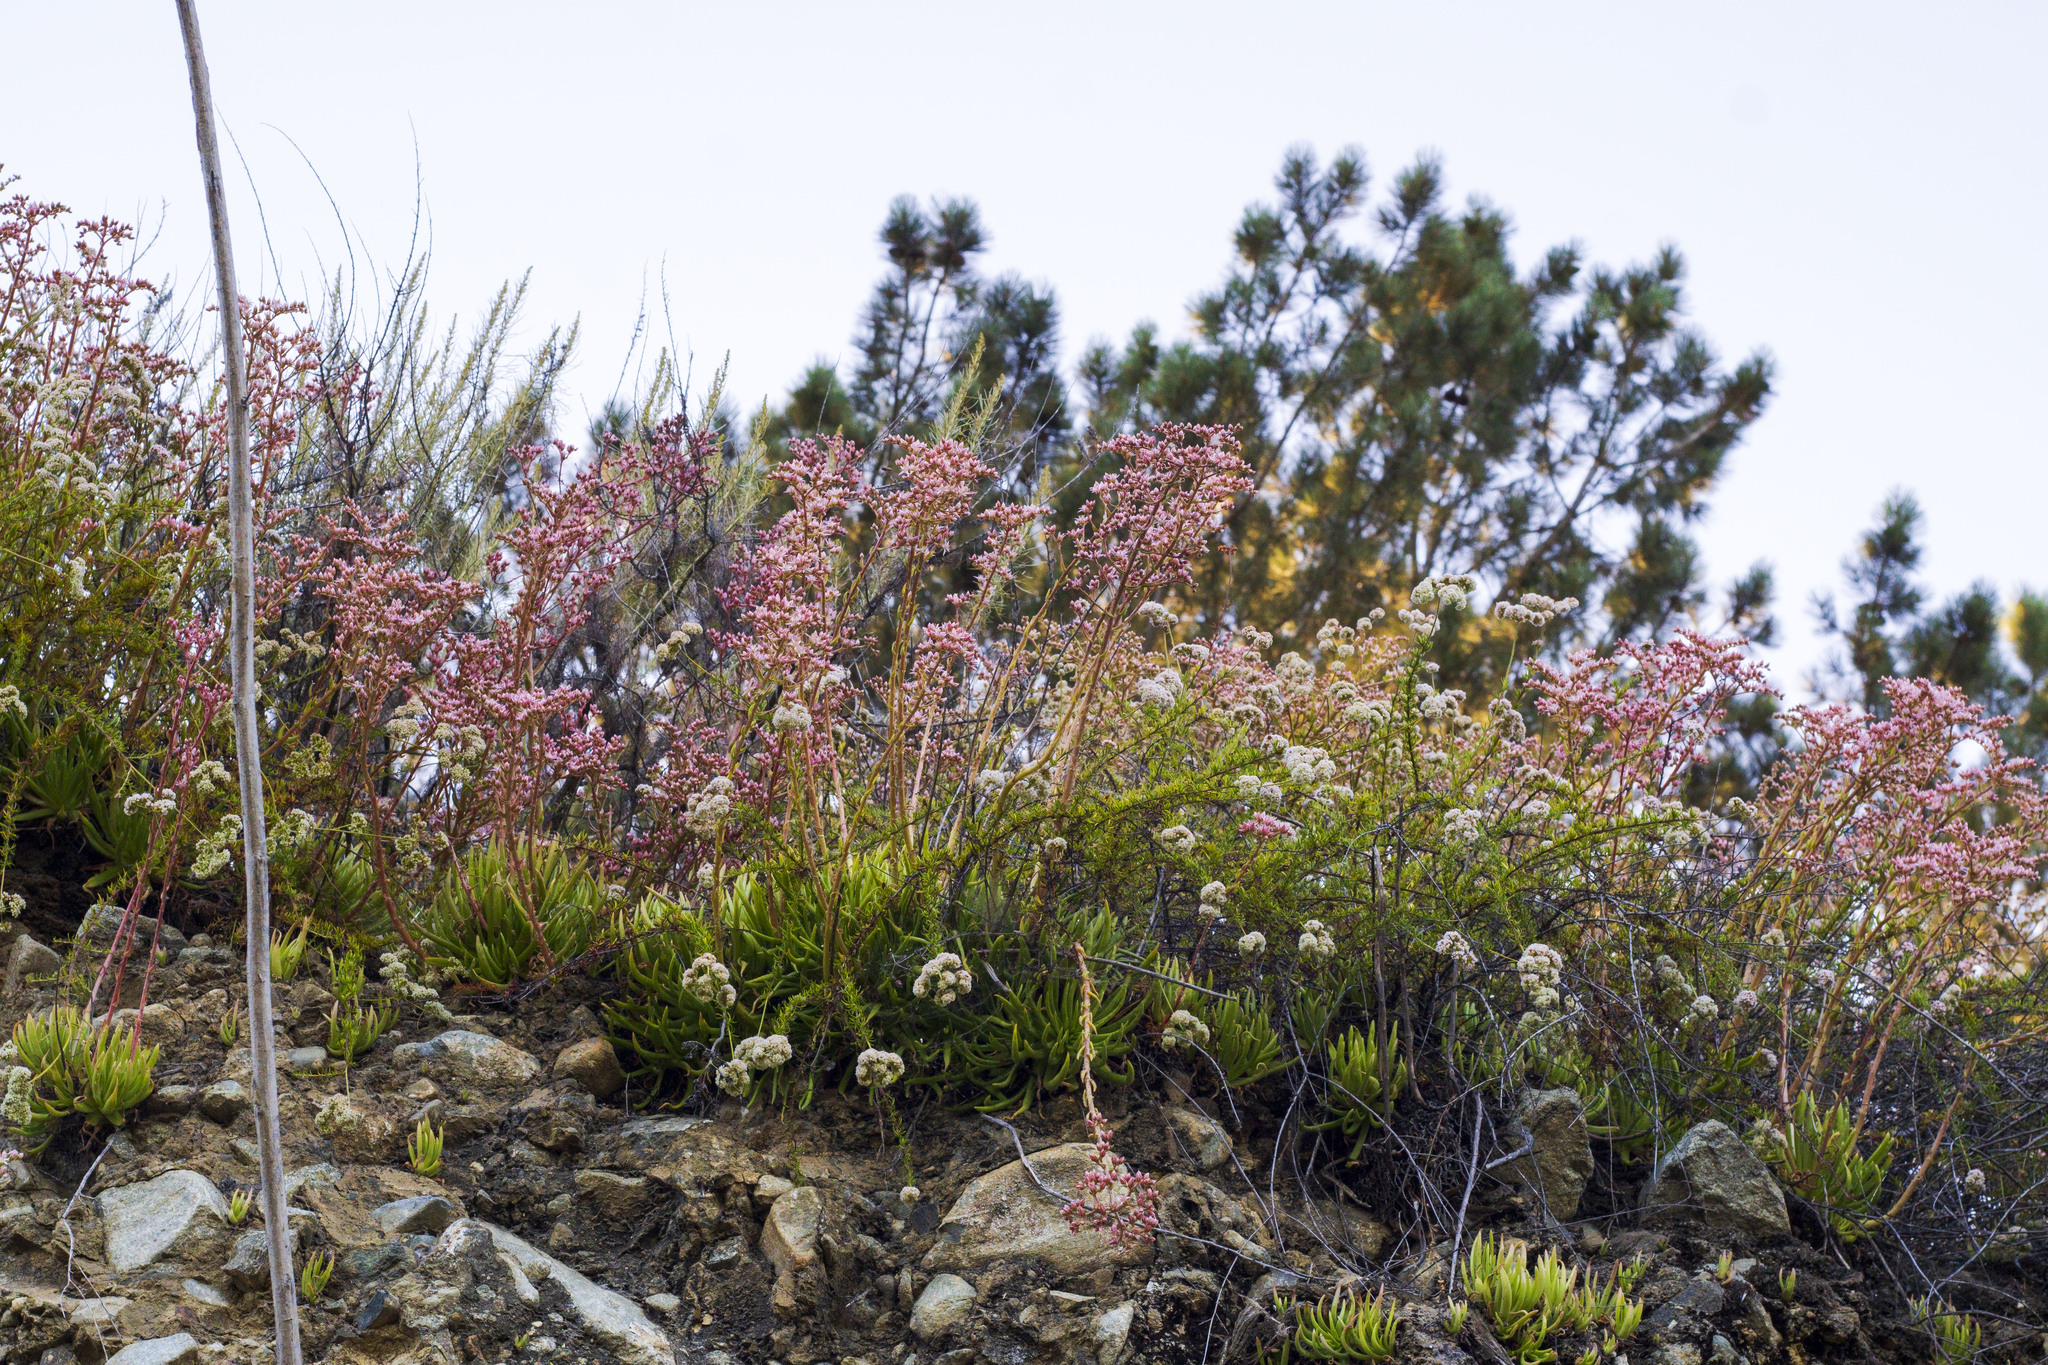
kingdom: Plantae
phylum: Tracheophyta
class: Magnoliopsida
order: Saxifragales
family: Crassulaceae
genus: Dudleya
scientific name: Dudleya viscida
